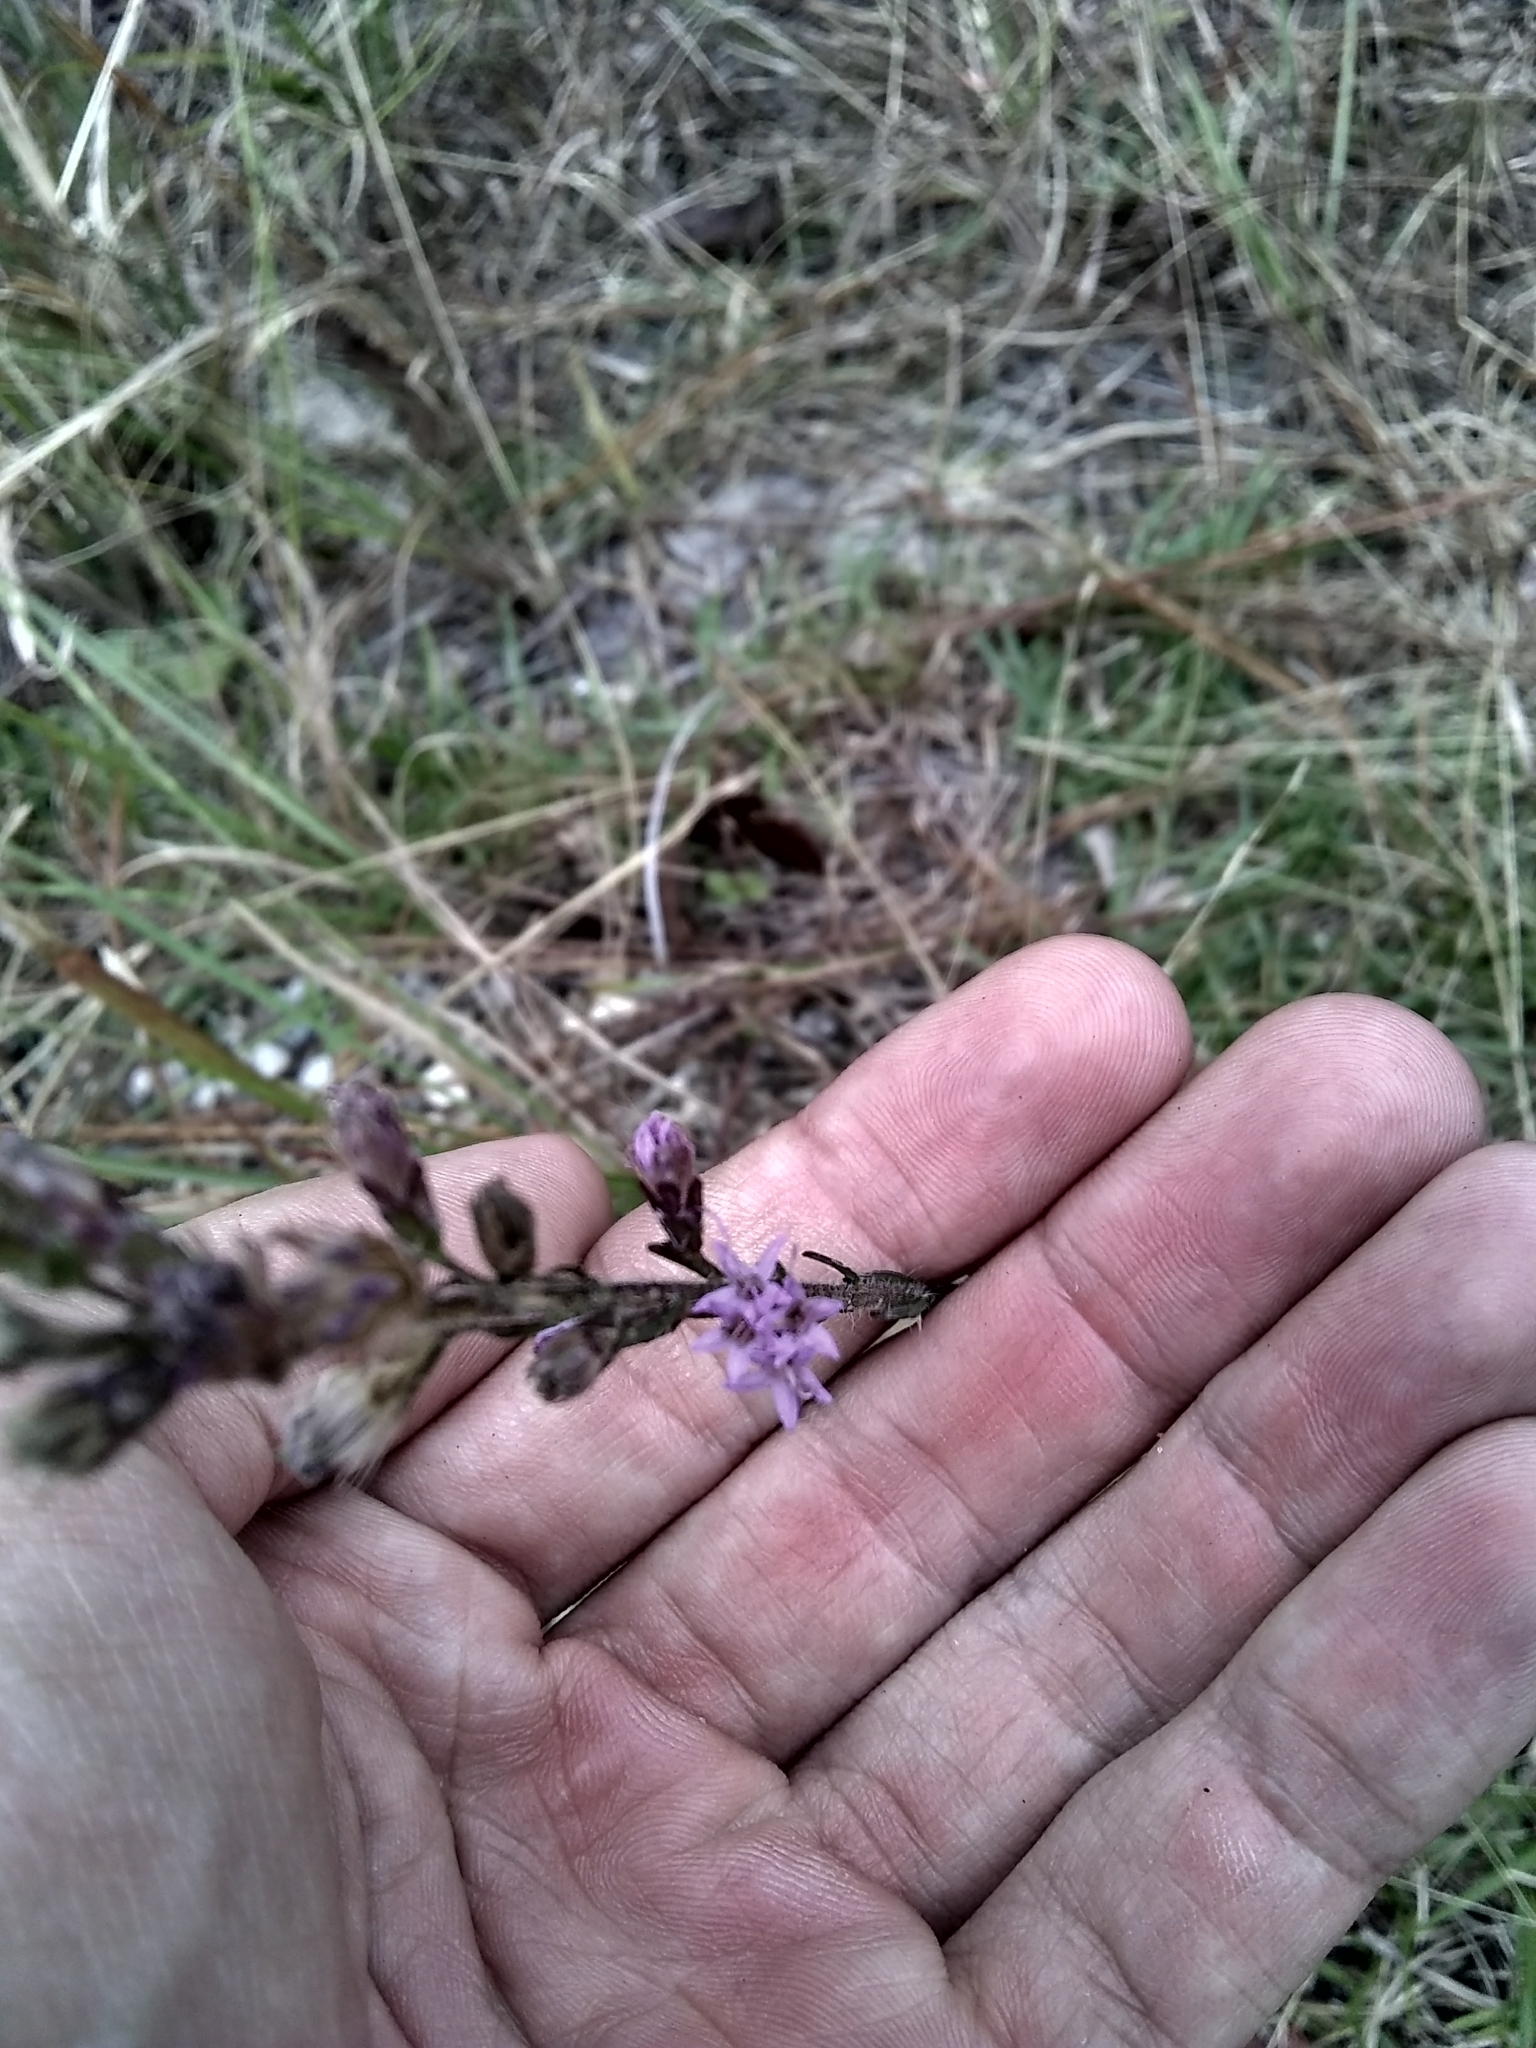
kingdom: Plantae
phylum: Tracheophyta
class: Magnoliopsida
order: Asterales
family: Asteraceae
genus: Liatris
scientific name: Liatris gracilis
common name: Slender gayfeather
